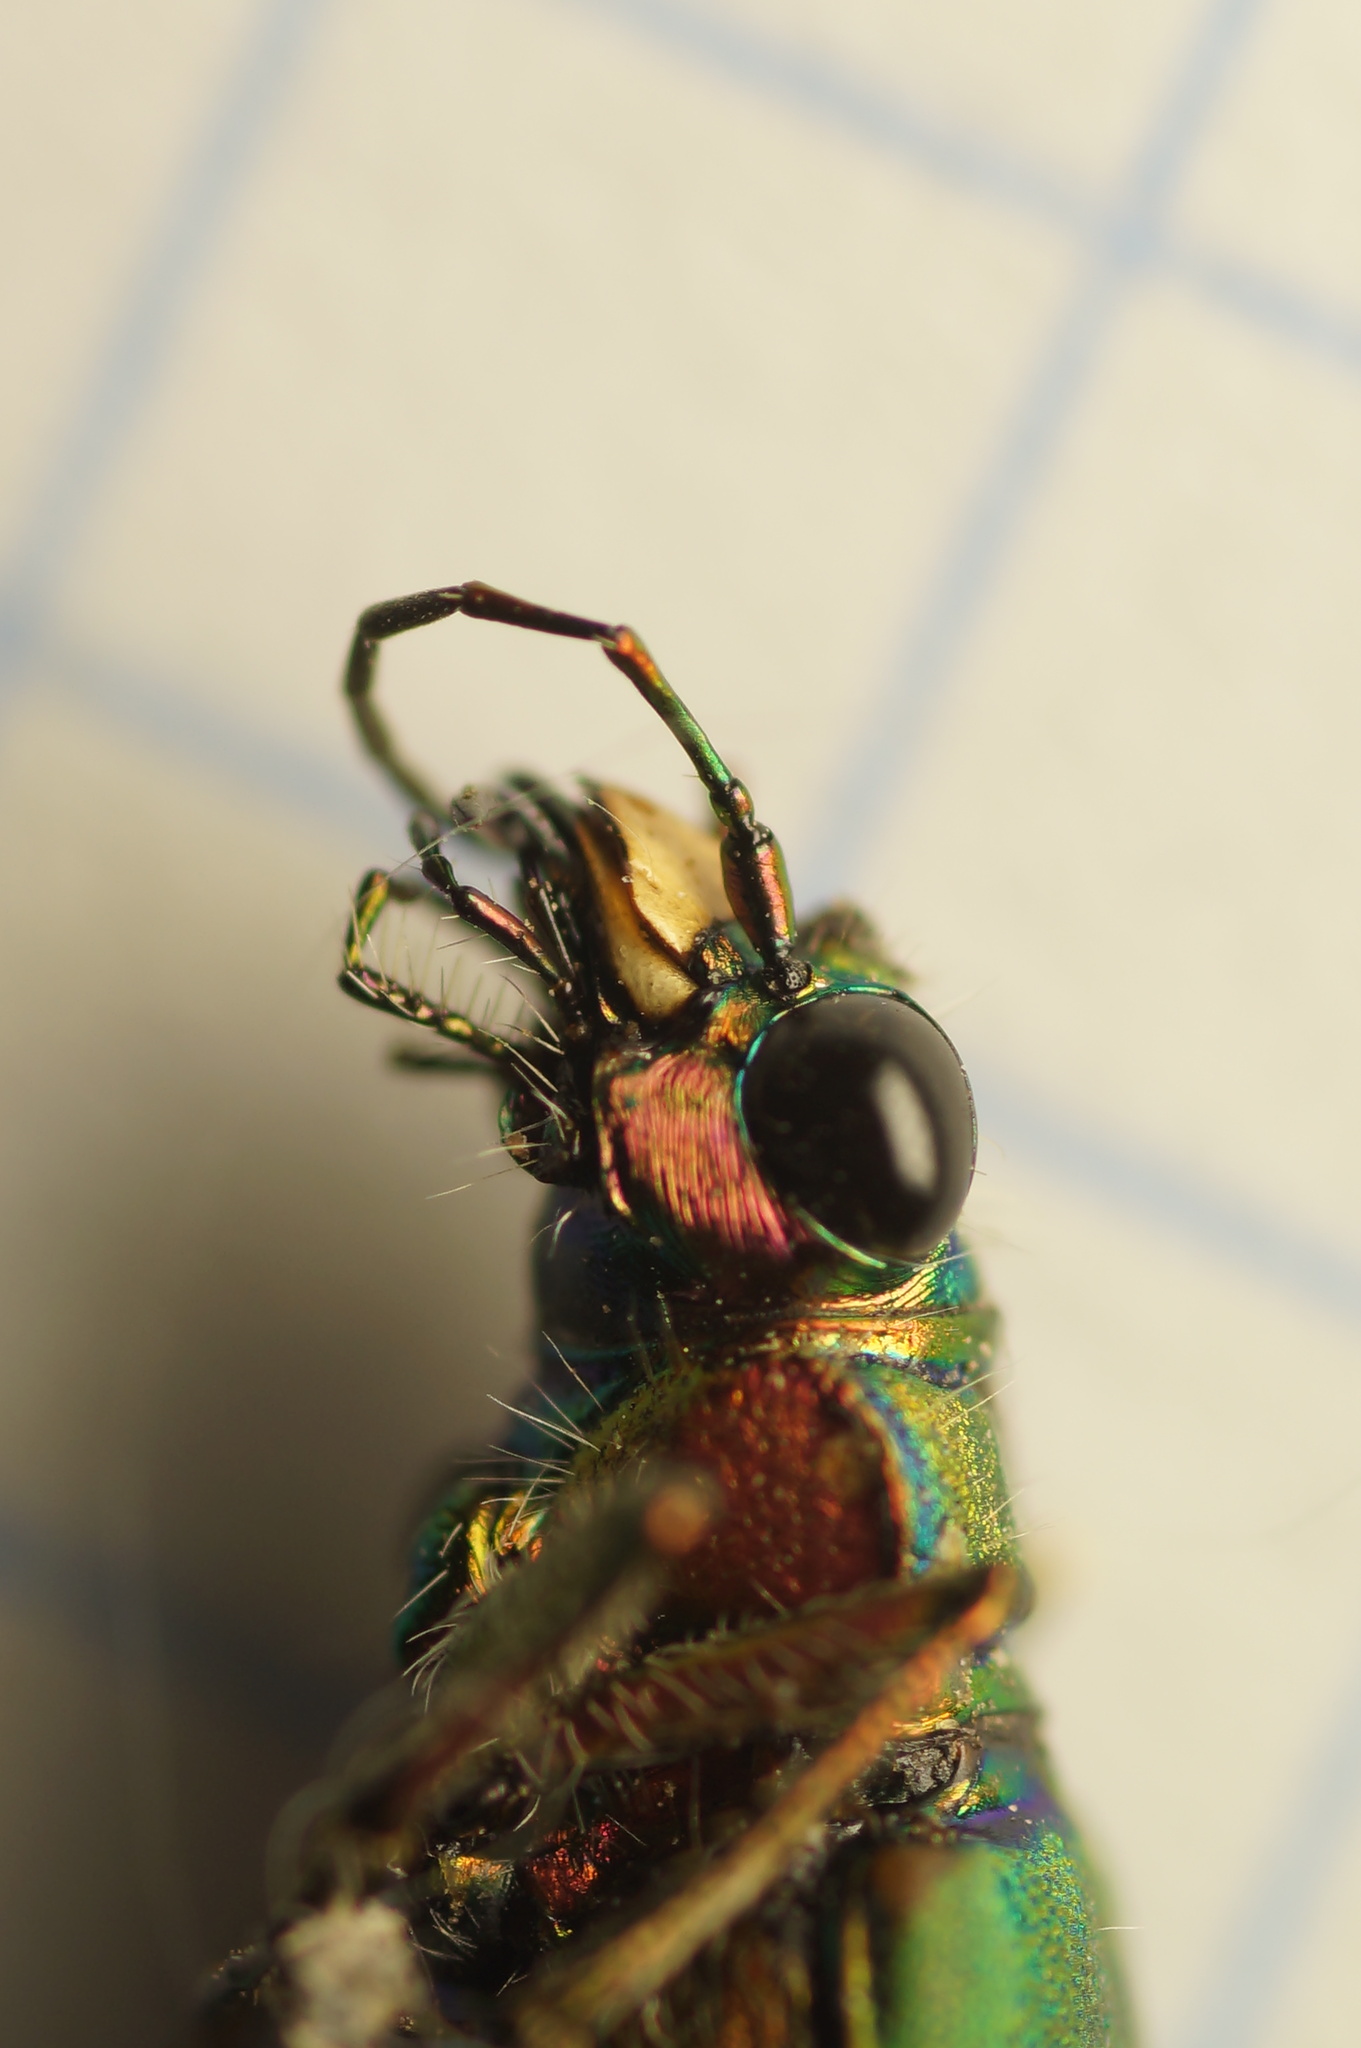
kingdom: Animalia
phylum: Arthropoda
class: Insecta
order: Coleoptera
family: Carabidae
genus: Cicindela
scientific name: Cicindela campestris
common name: Common tiger beetle
